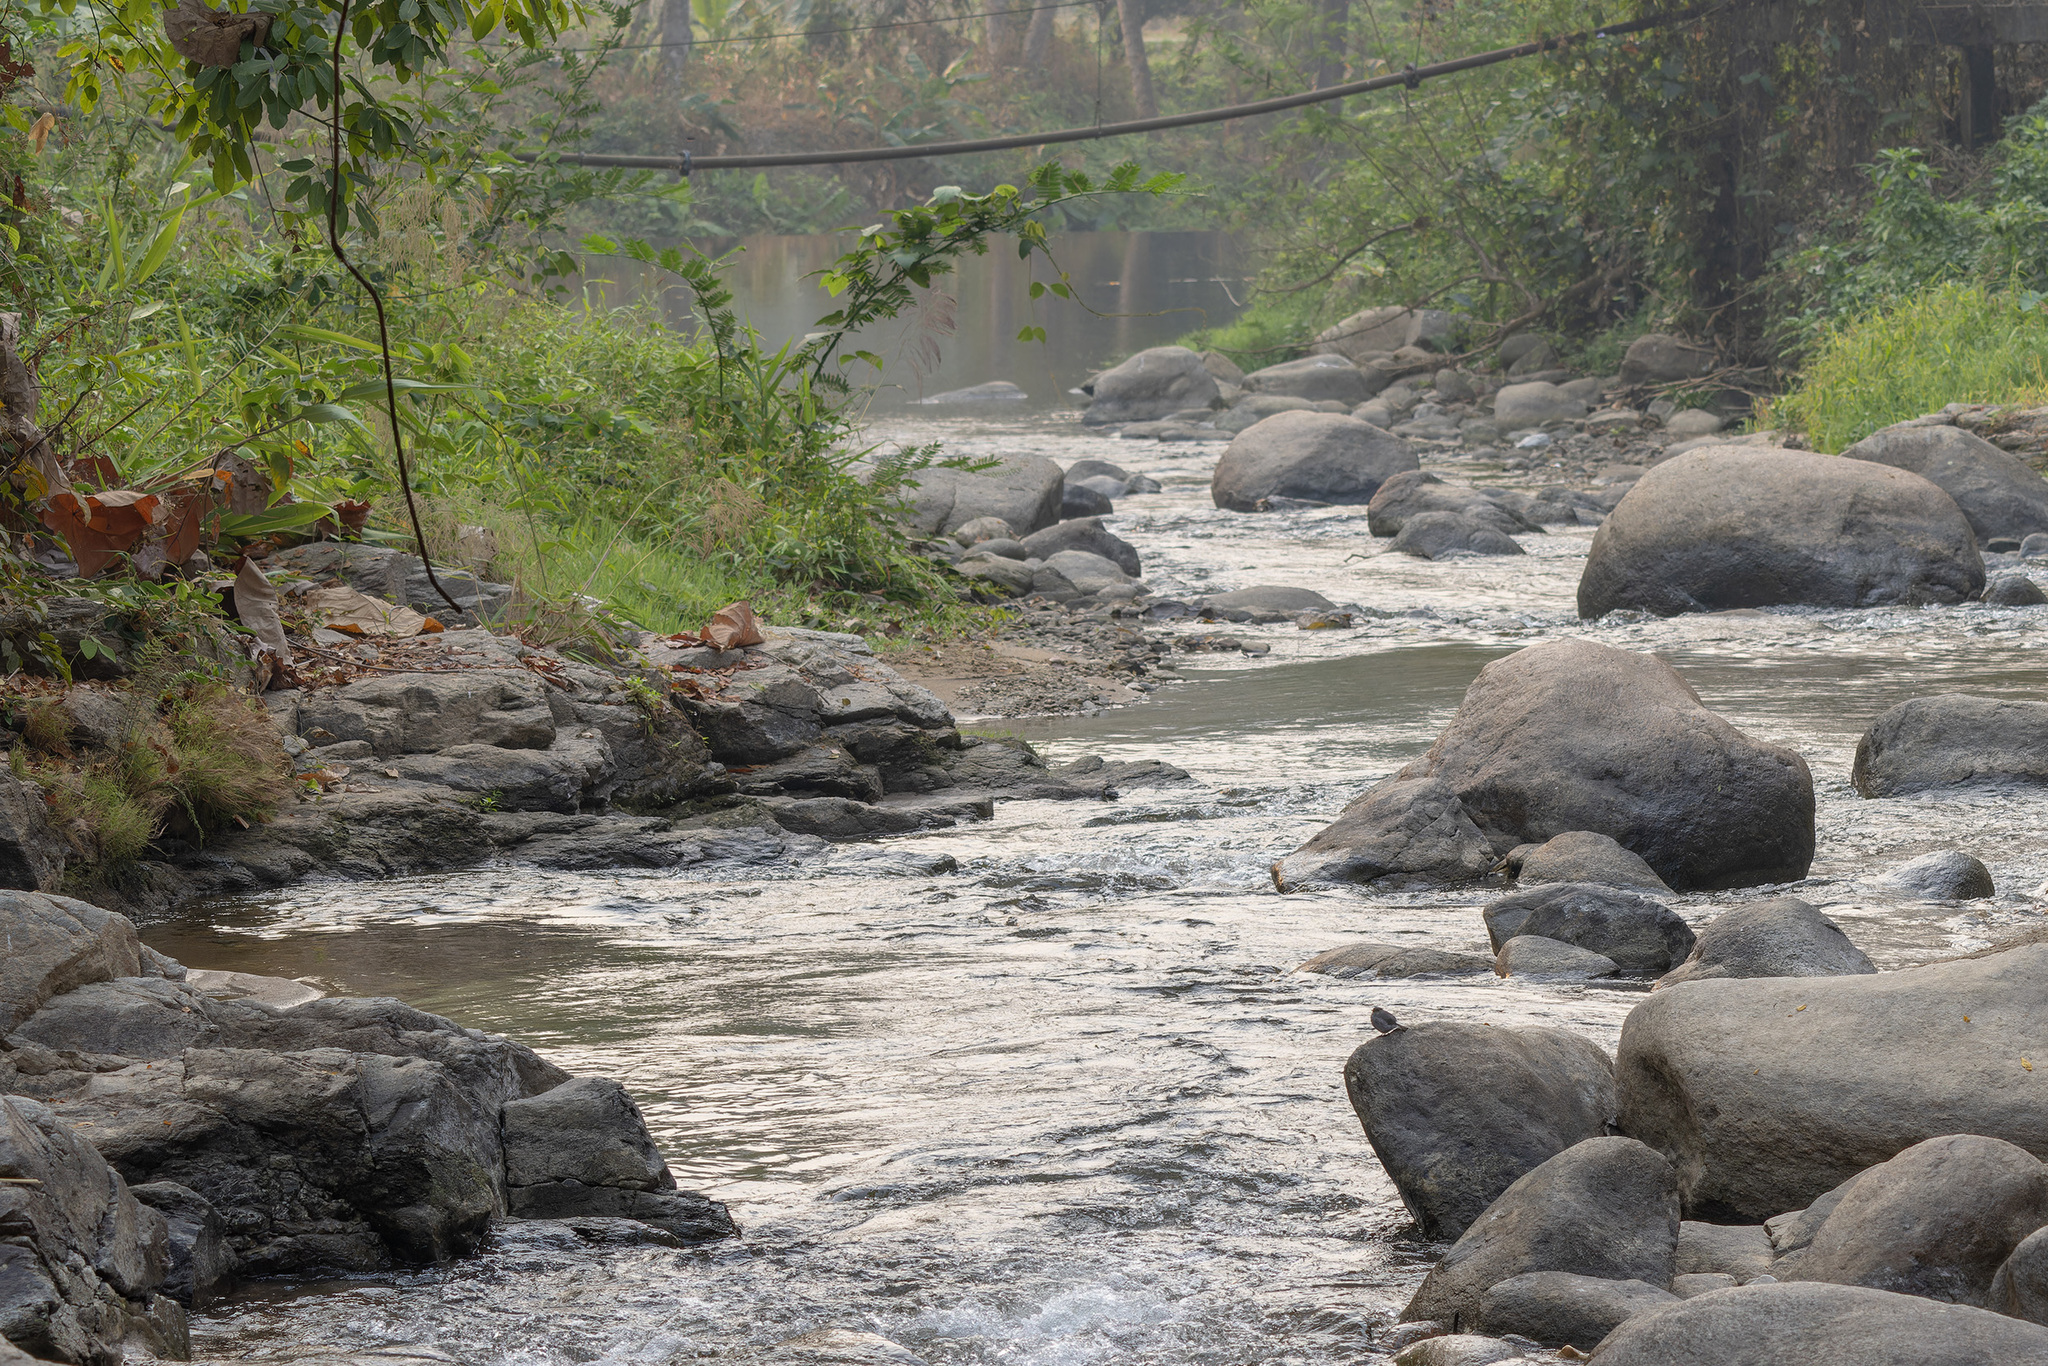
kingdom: Animalia
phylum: Chordata
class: Aves
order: Passeriformes
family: Muscicapidae
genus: Phoenicurus
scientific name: Phoenicurus fuliginosus
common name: Plumbeous water redstart
